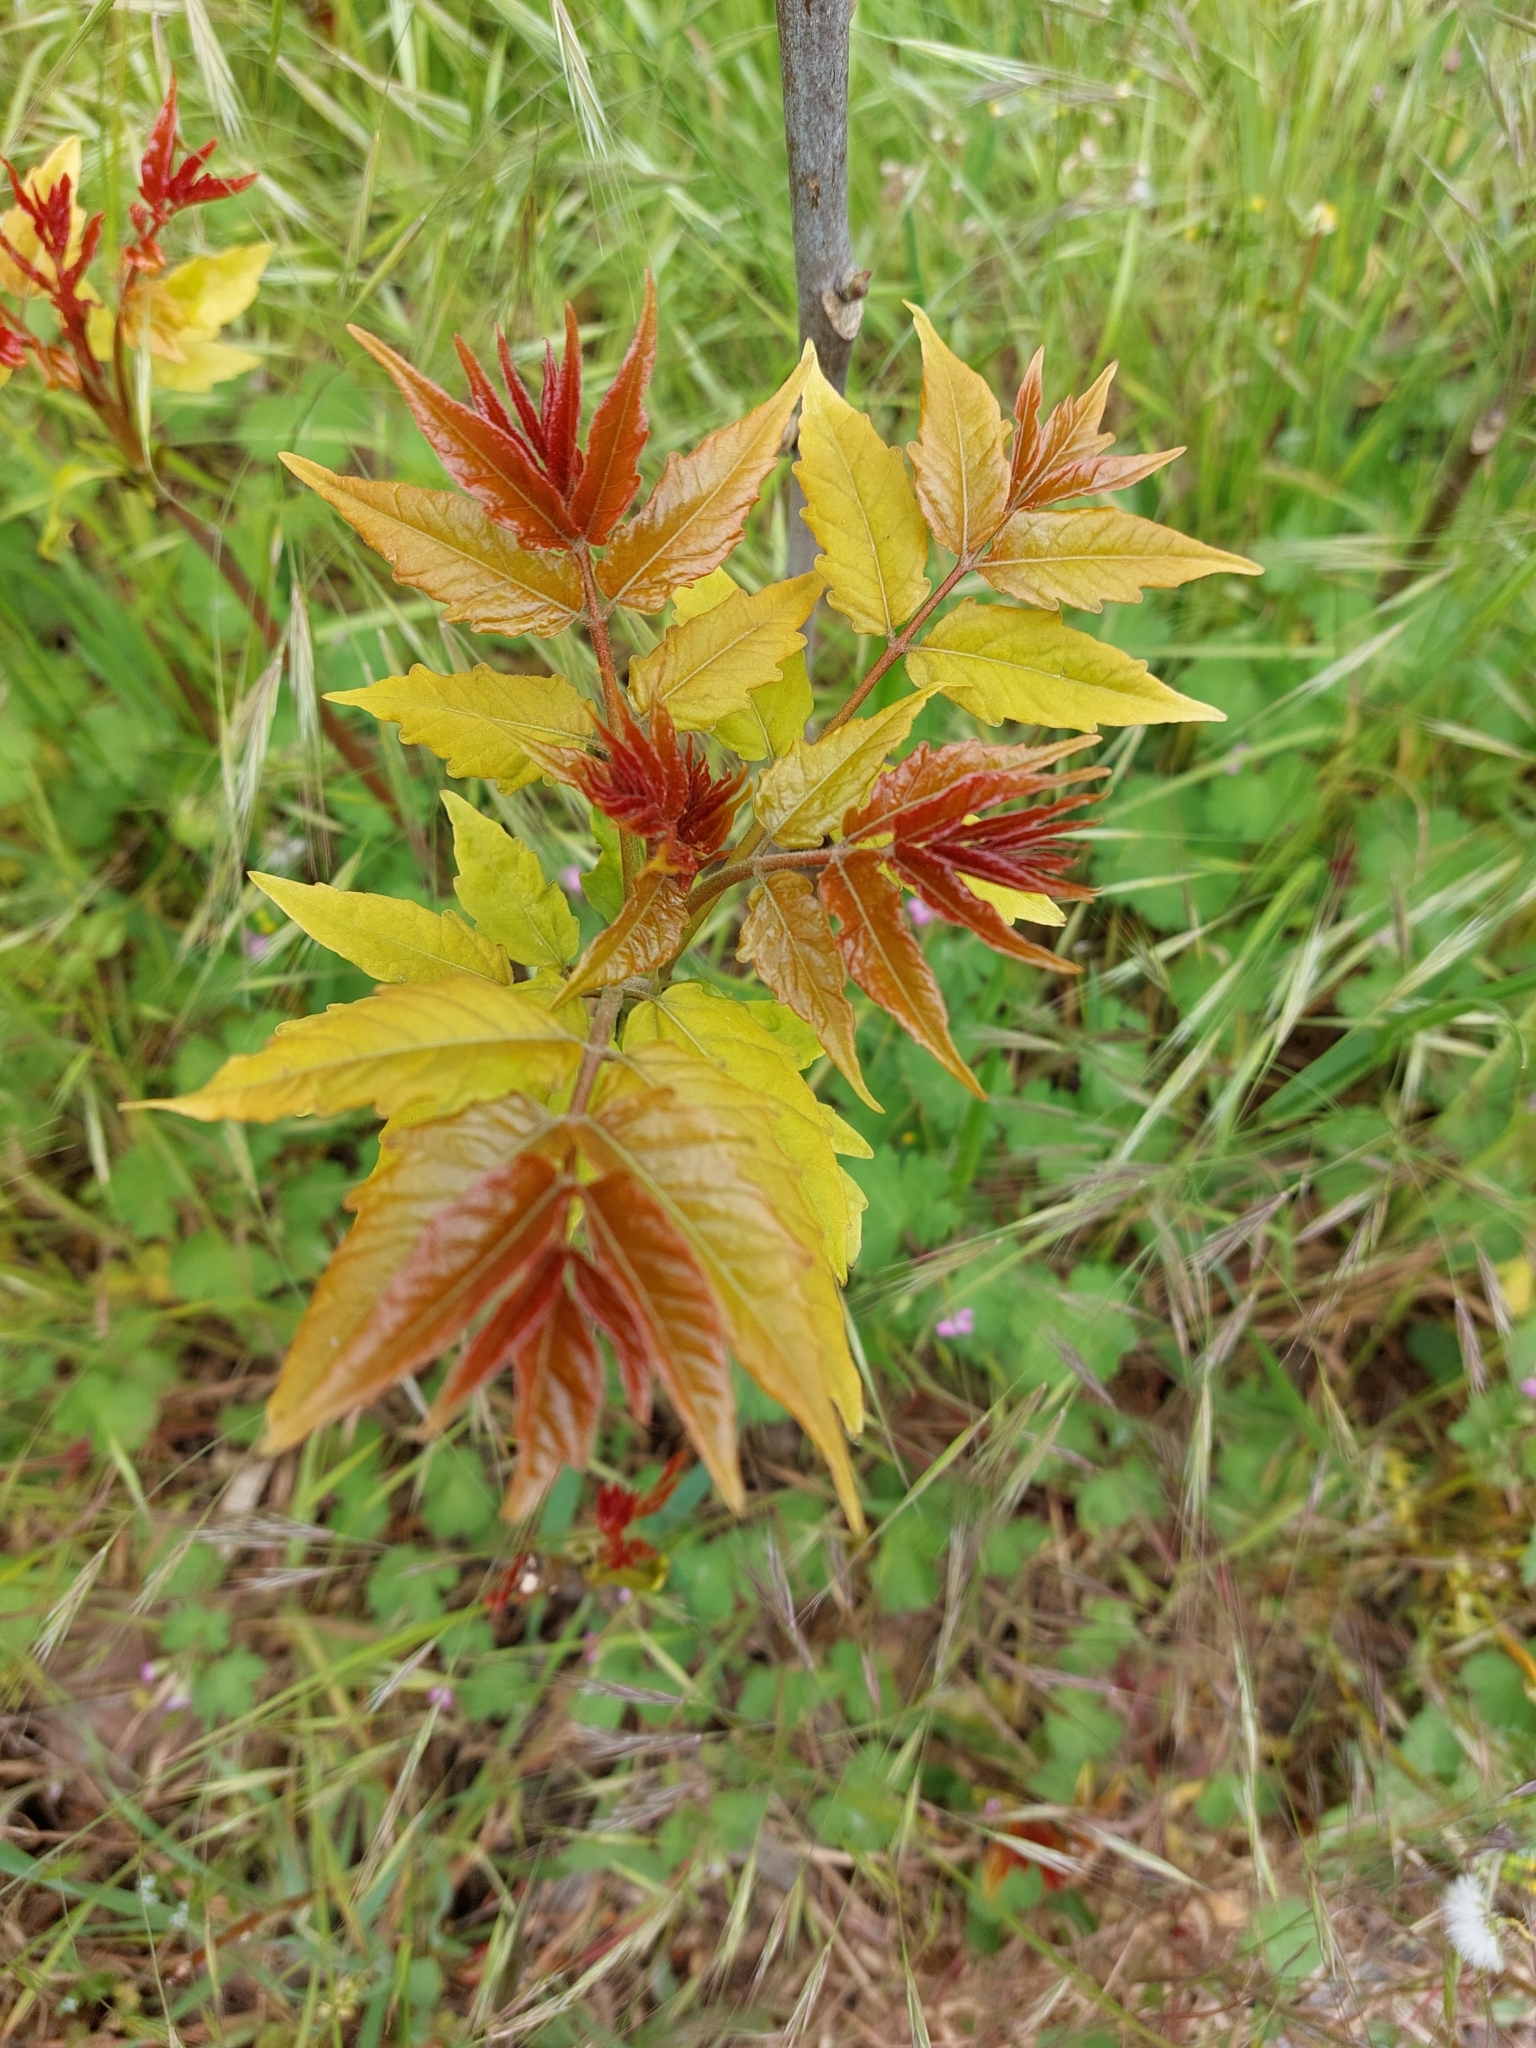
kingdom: Plantae
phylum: Tracheophyta
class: Magnoliopsida
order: Sapindales
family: Simaroubaceae
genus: Ailanthus
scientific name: Ailanthus altissima
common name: Tree-of-heaven
